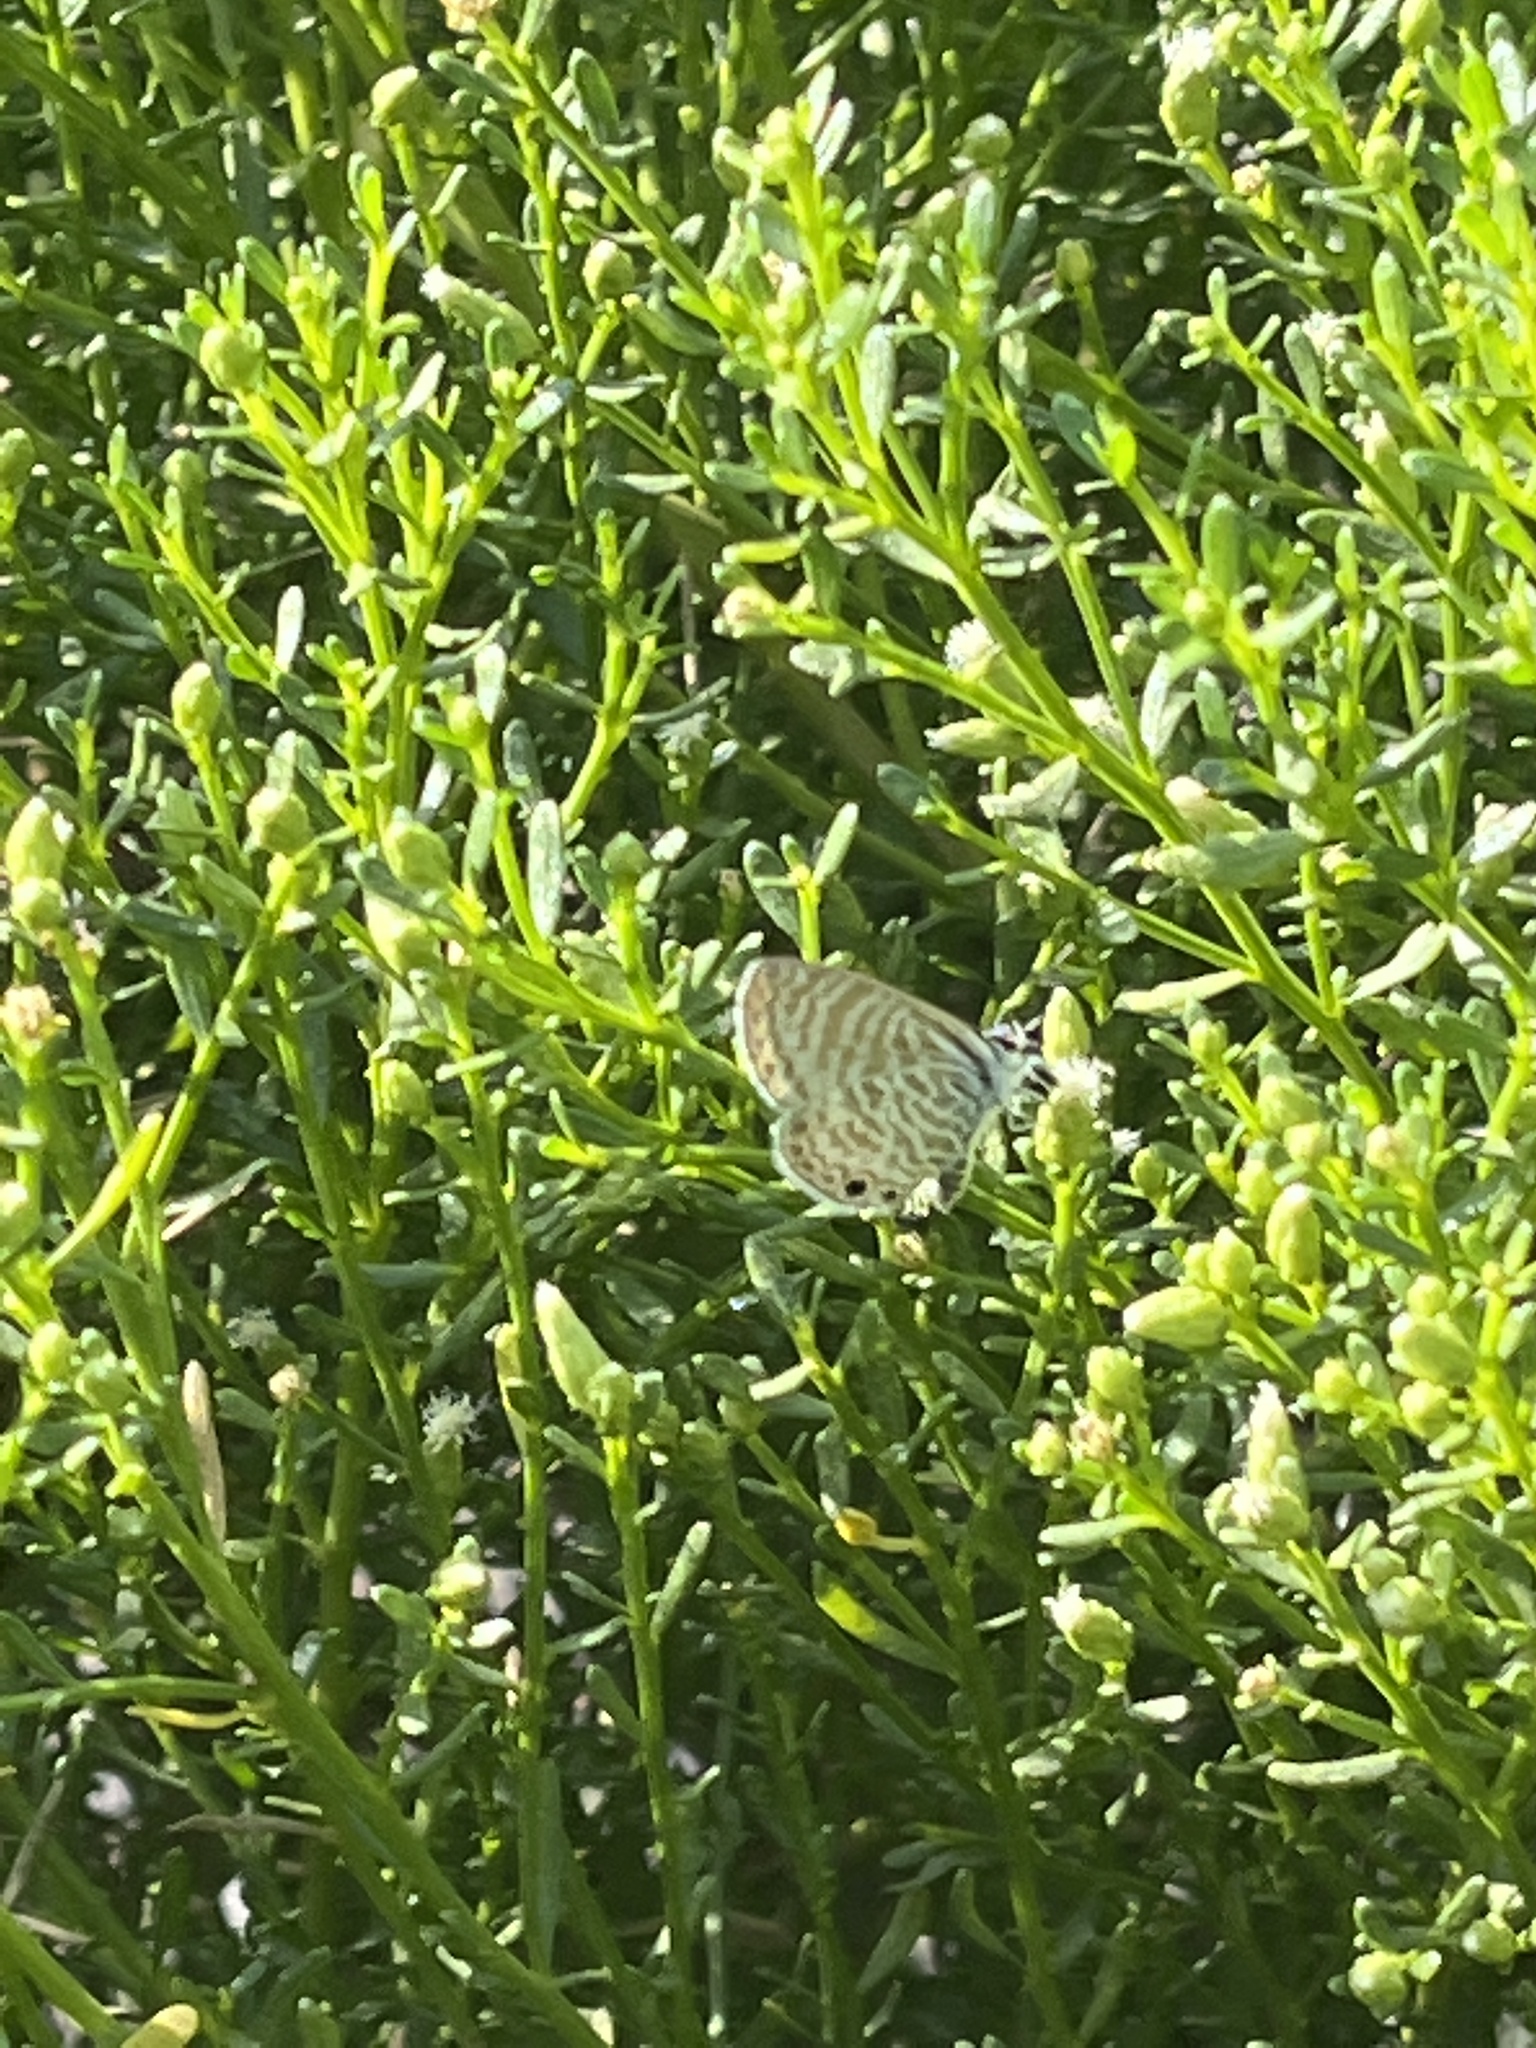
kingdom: Animalia
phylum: Arthropoda
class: Insecta
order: Lepidoptera
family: Lycaenidae
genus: Leptotes
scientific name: Leptotes marina
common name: Marine blue
